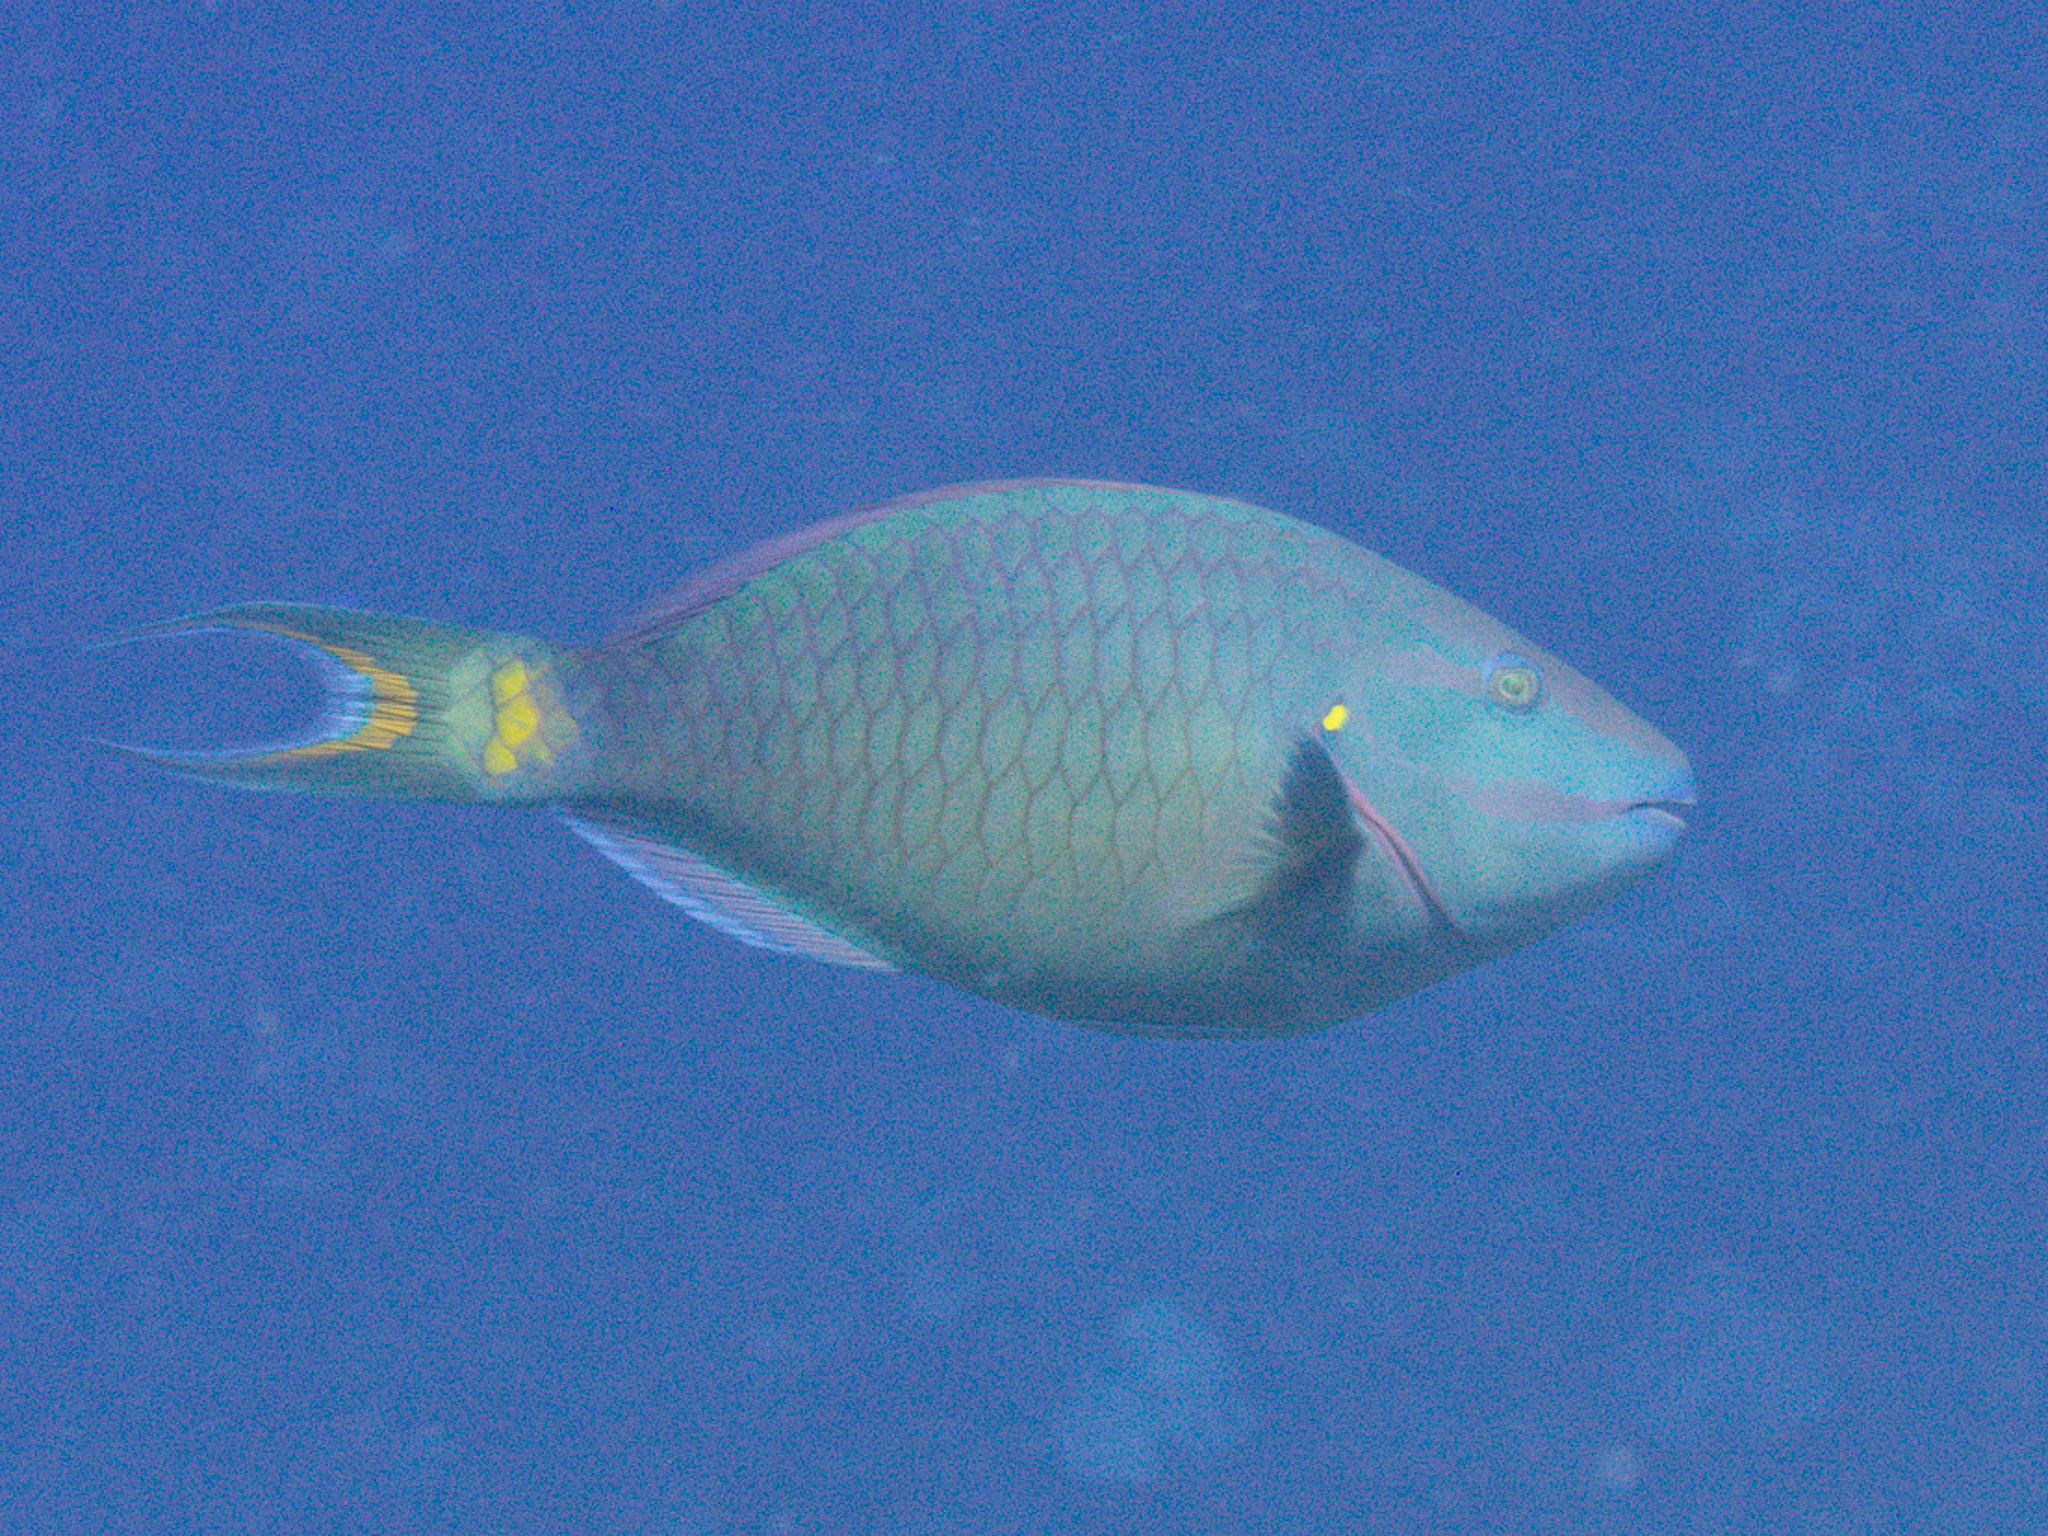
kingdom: Animalia
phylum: Chordata
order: Perciformes
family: Scaridae
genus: Sparisoma
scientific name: Sparisoma viride
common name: Stoplight parrotfish
